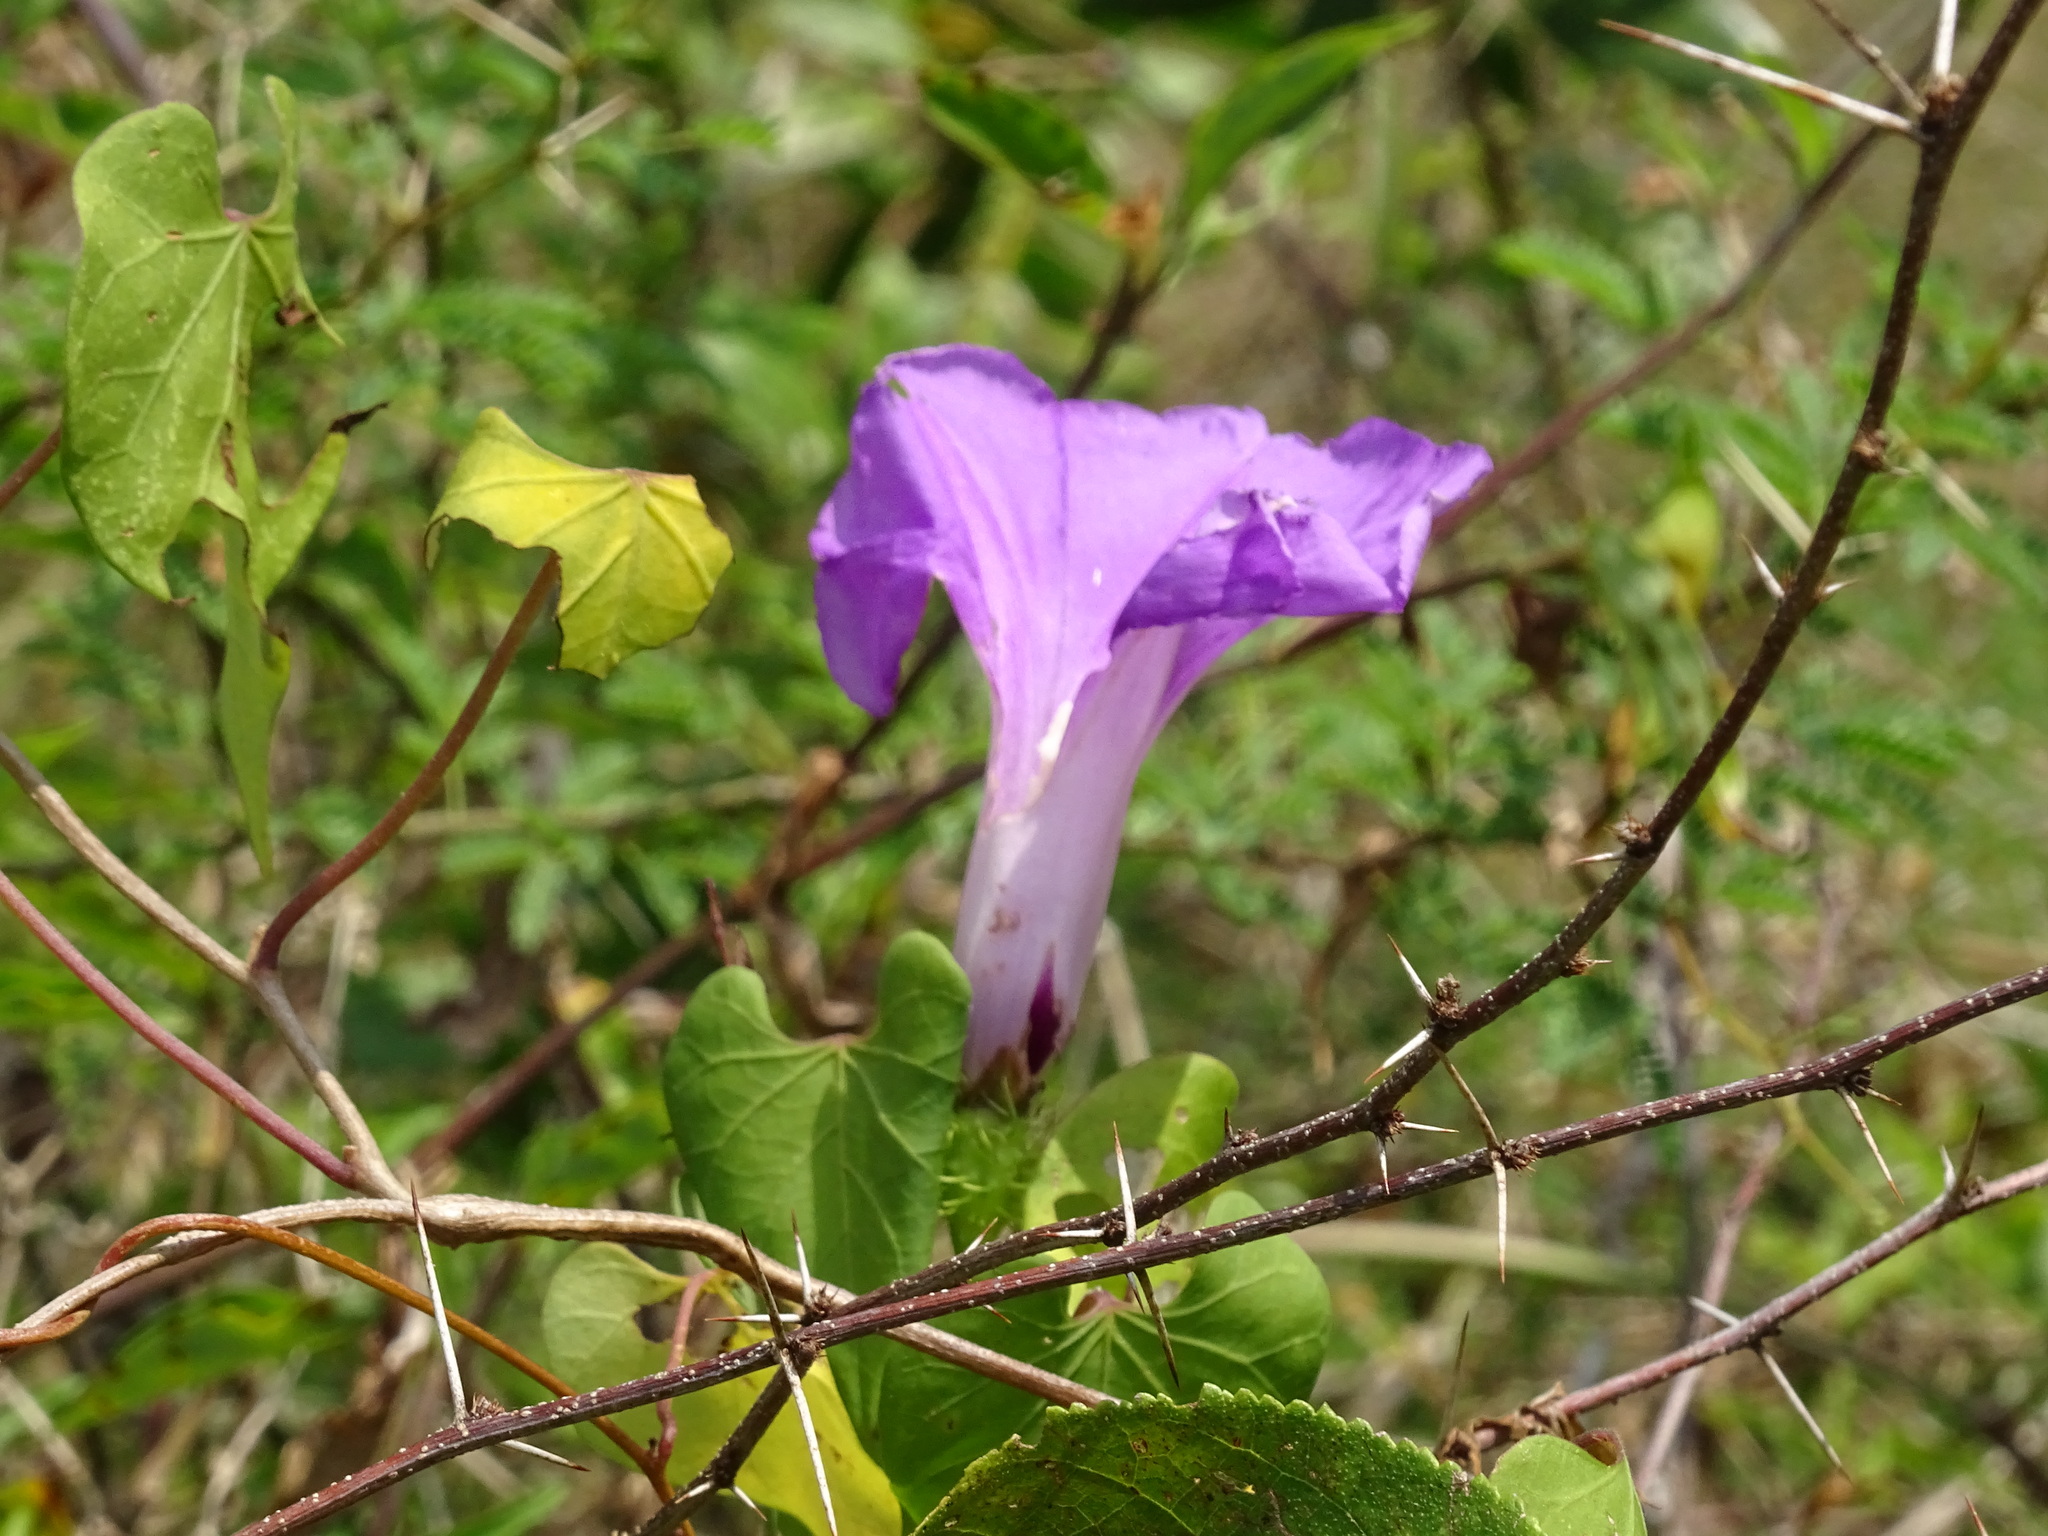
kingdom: Plantae
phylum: Tracheophyta
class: Magnoliopsida
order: Solanales
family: Convolvulaceae
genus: Ipomoea
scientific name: Ipomoea crinicalyx
